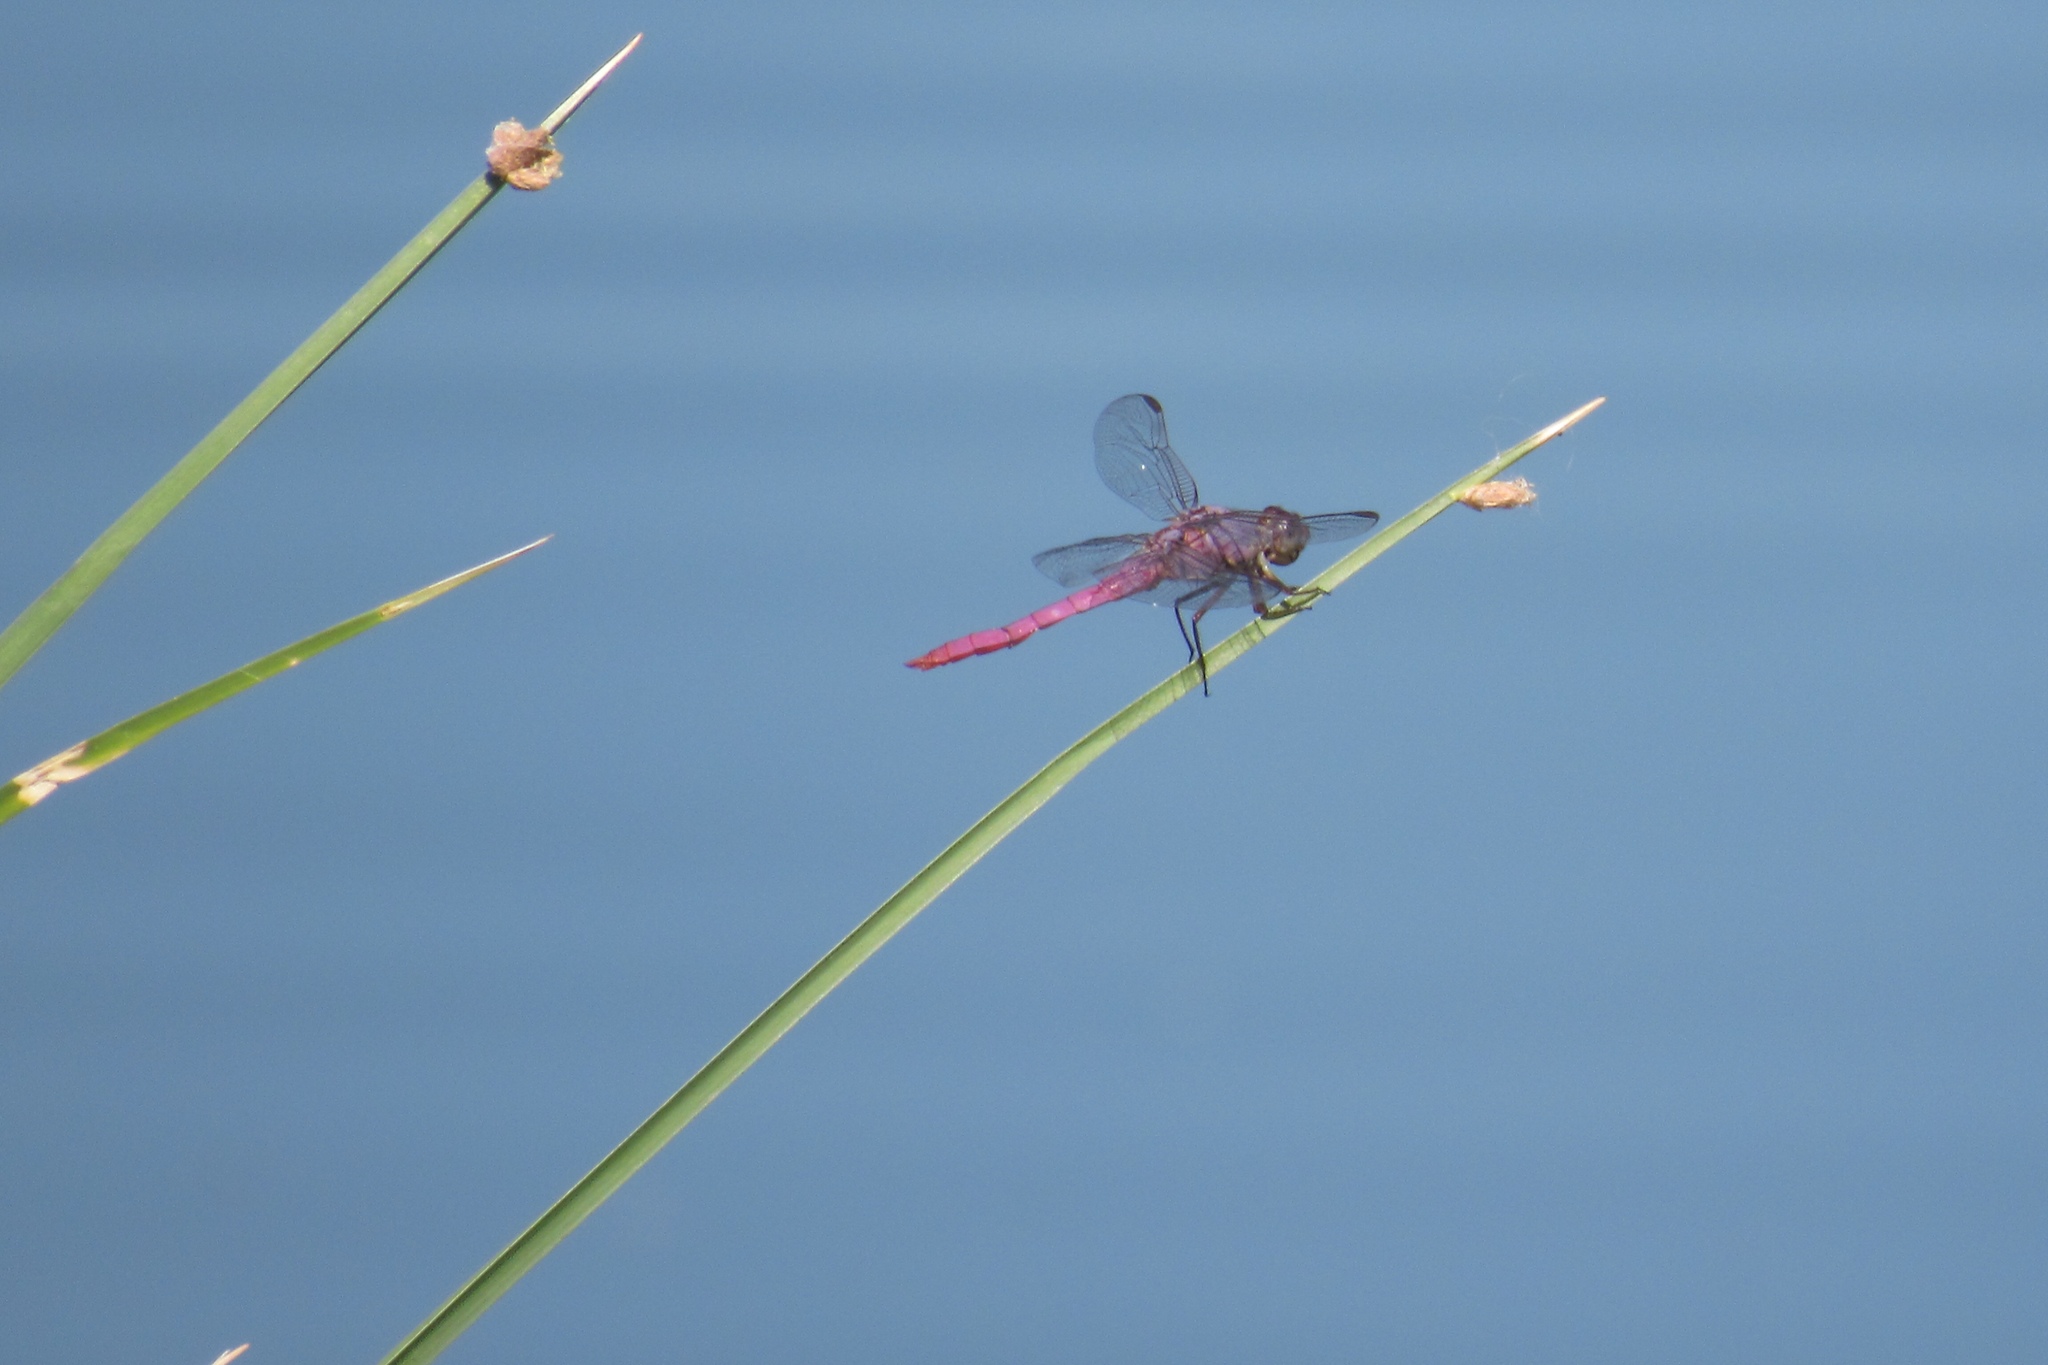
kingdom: Animalia
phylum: Arthropoda
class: Insecta
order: Odonata
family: Libellulidae
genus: Orthemis
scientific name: Orthemis ferruginea
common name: Roseate skimmer
